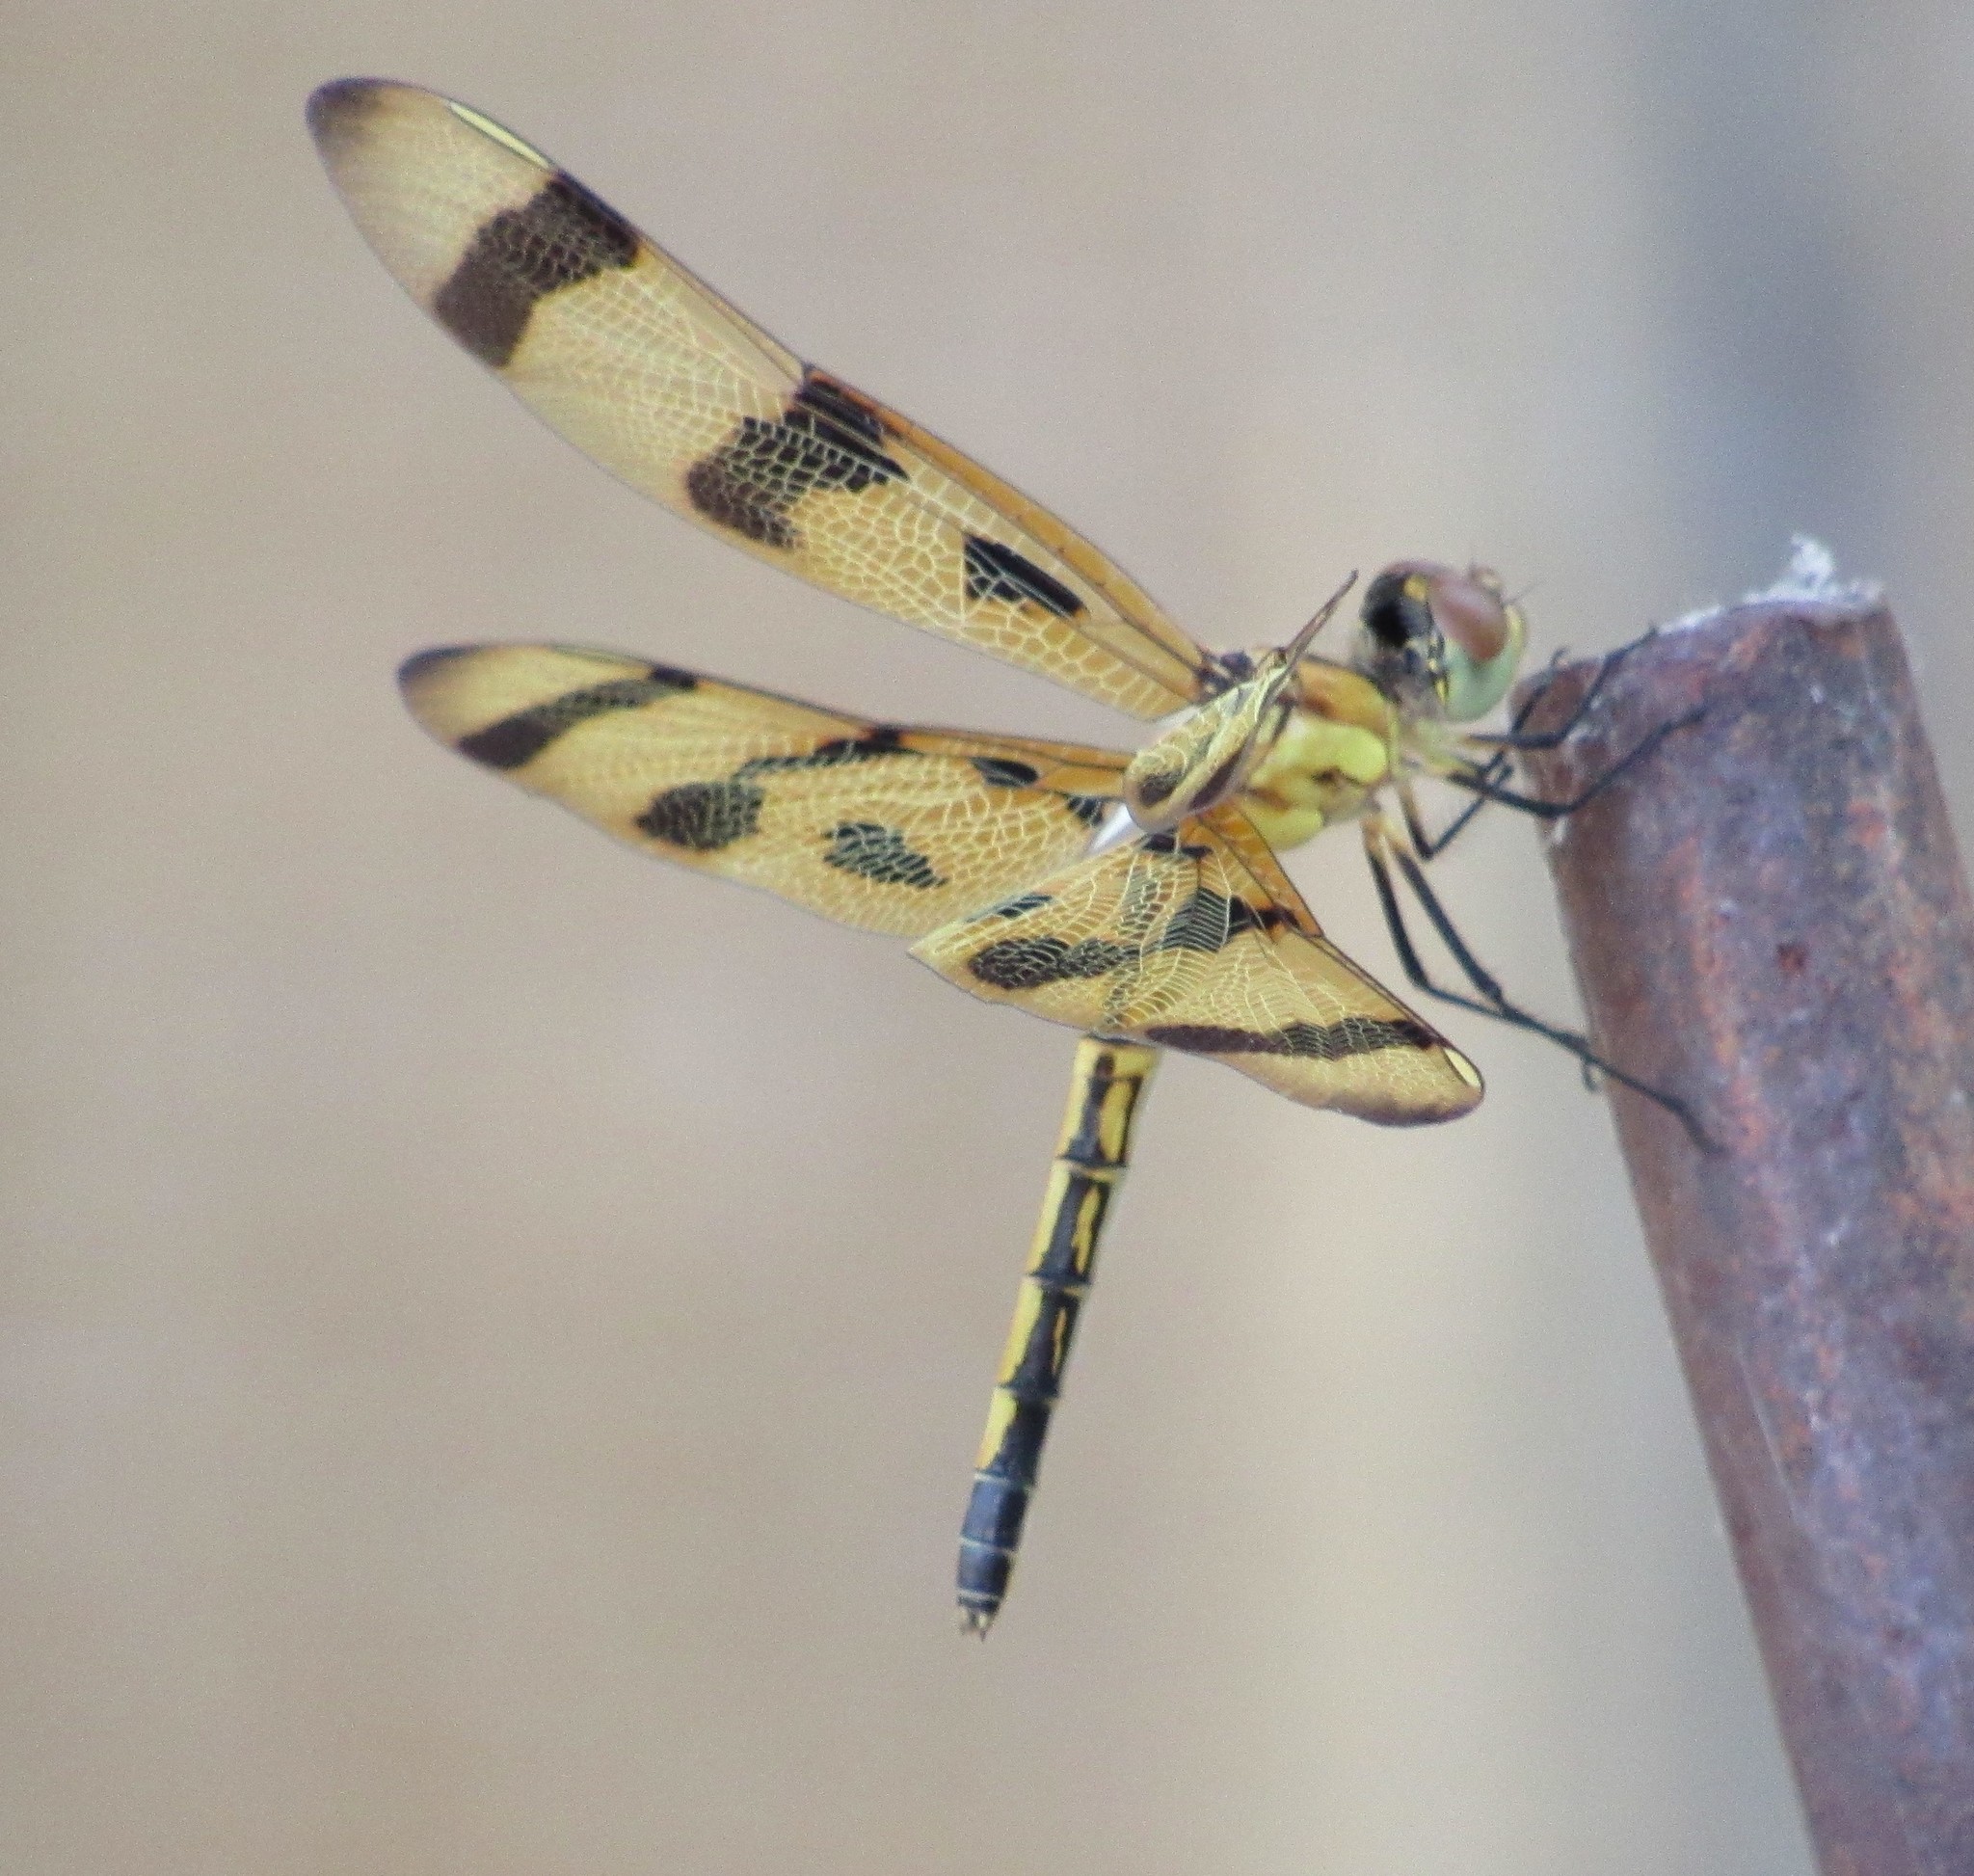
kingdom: Animalia
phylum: Arthropoda
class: Insecta
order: Odonata
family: Libellulidae
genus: Celithemis
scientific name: Celithemis eponina
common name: Halloween pennant
